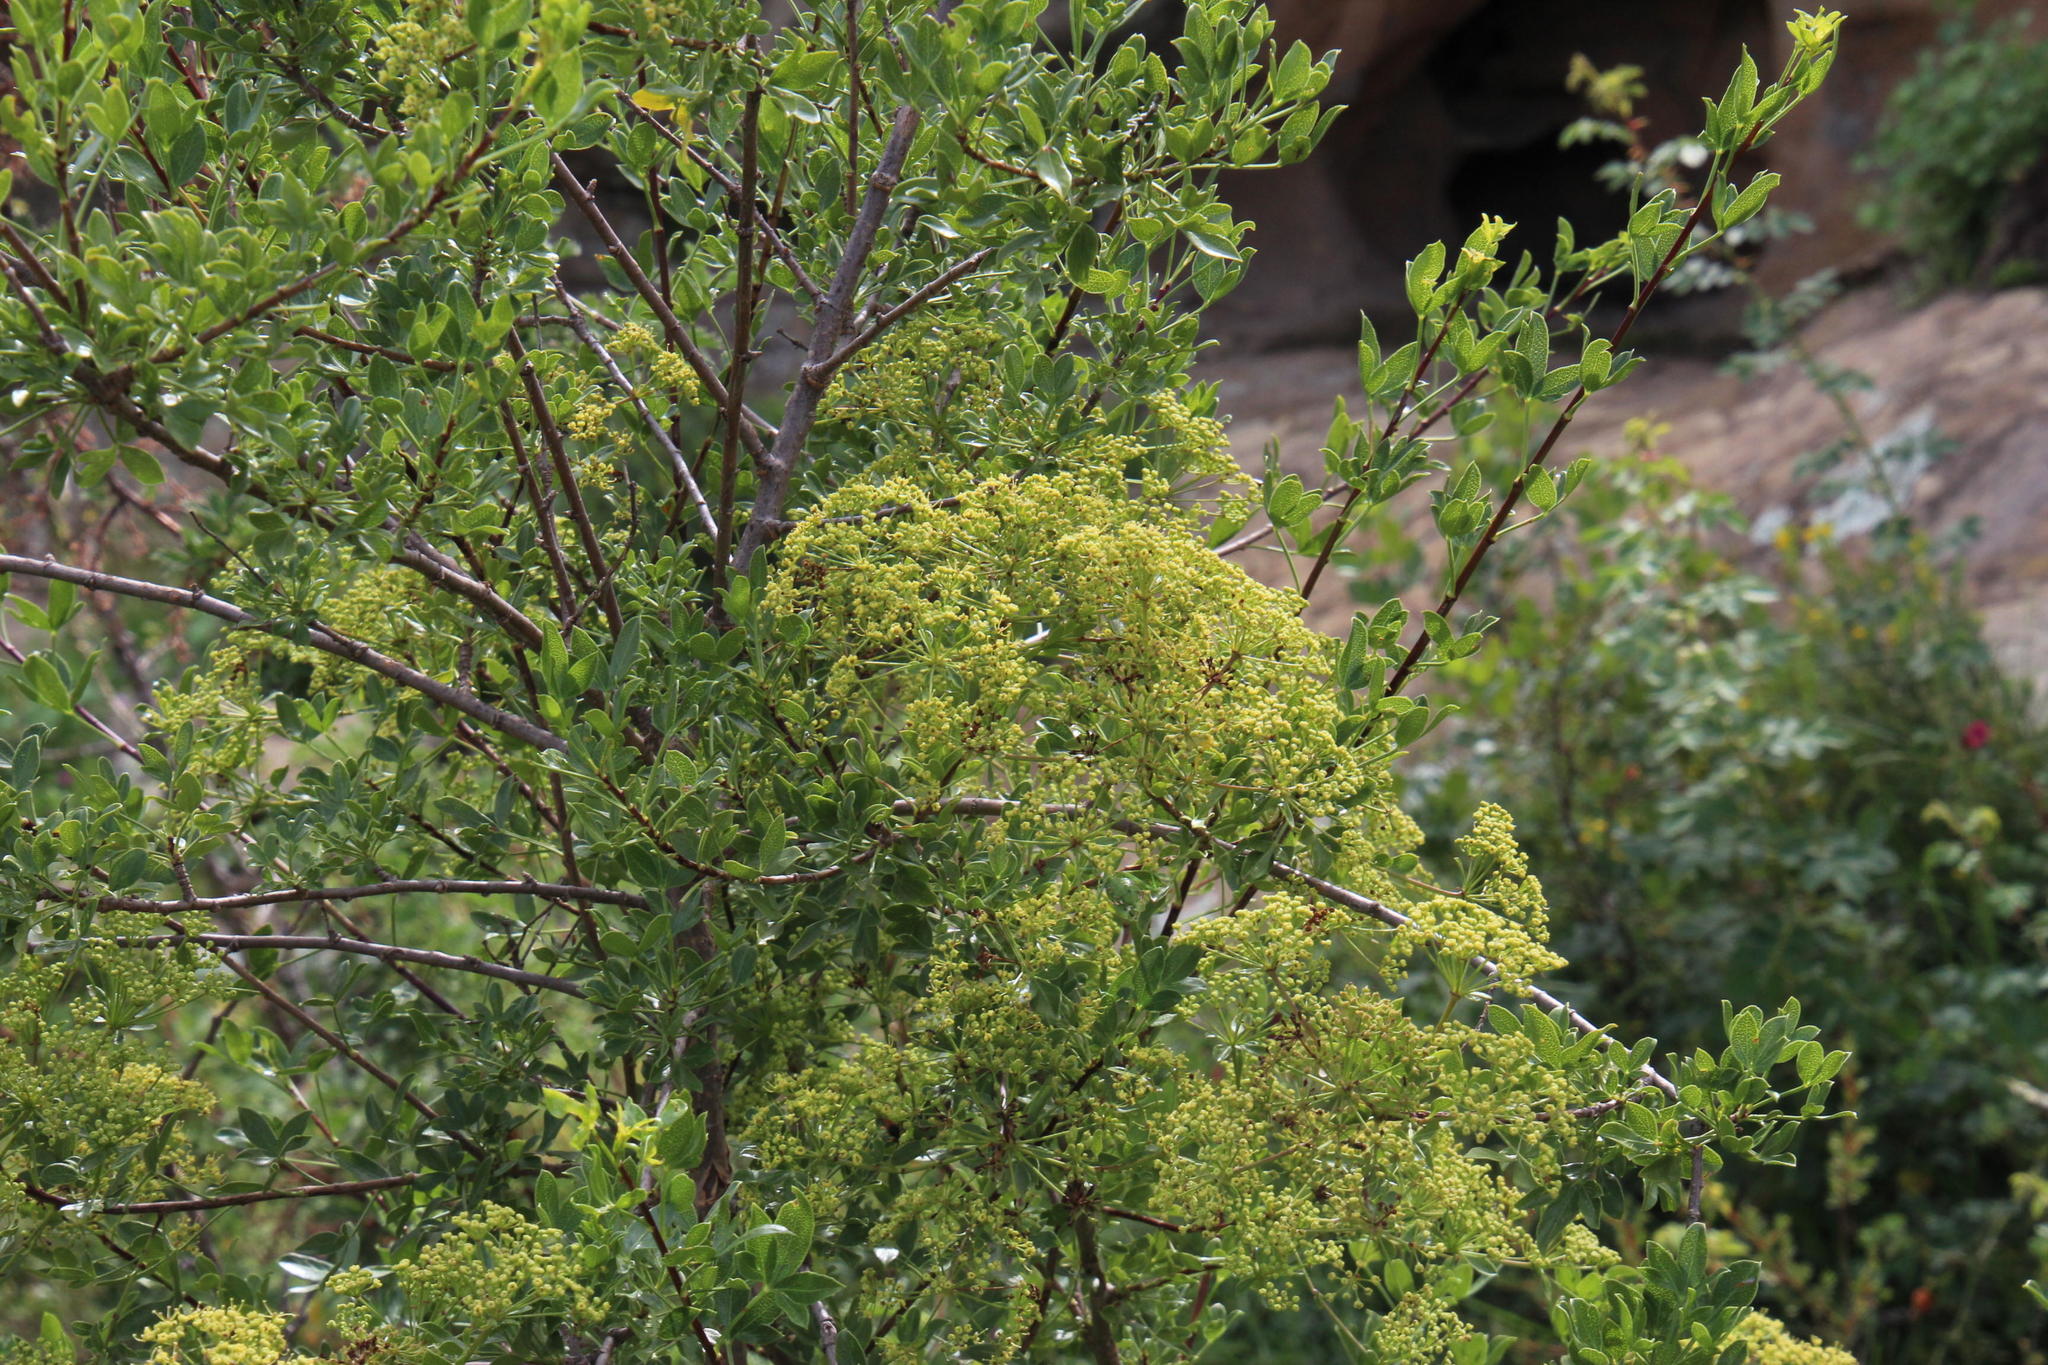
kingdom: Plantae
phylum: Tracheophyta
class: Magnoliopsida
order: Apiales
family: Apiaceae
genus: Polemannia
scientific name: Polemannia simplicior
